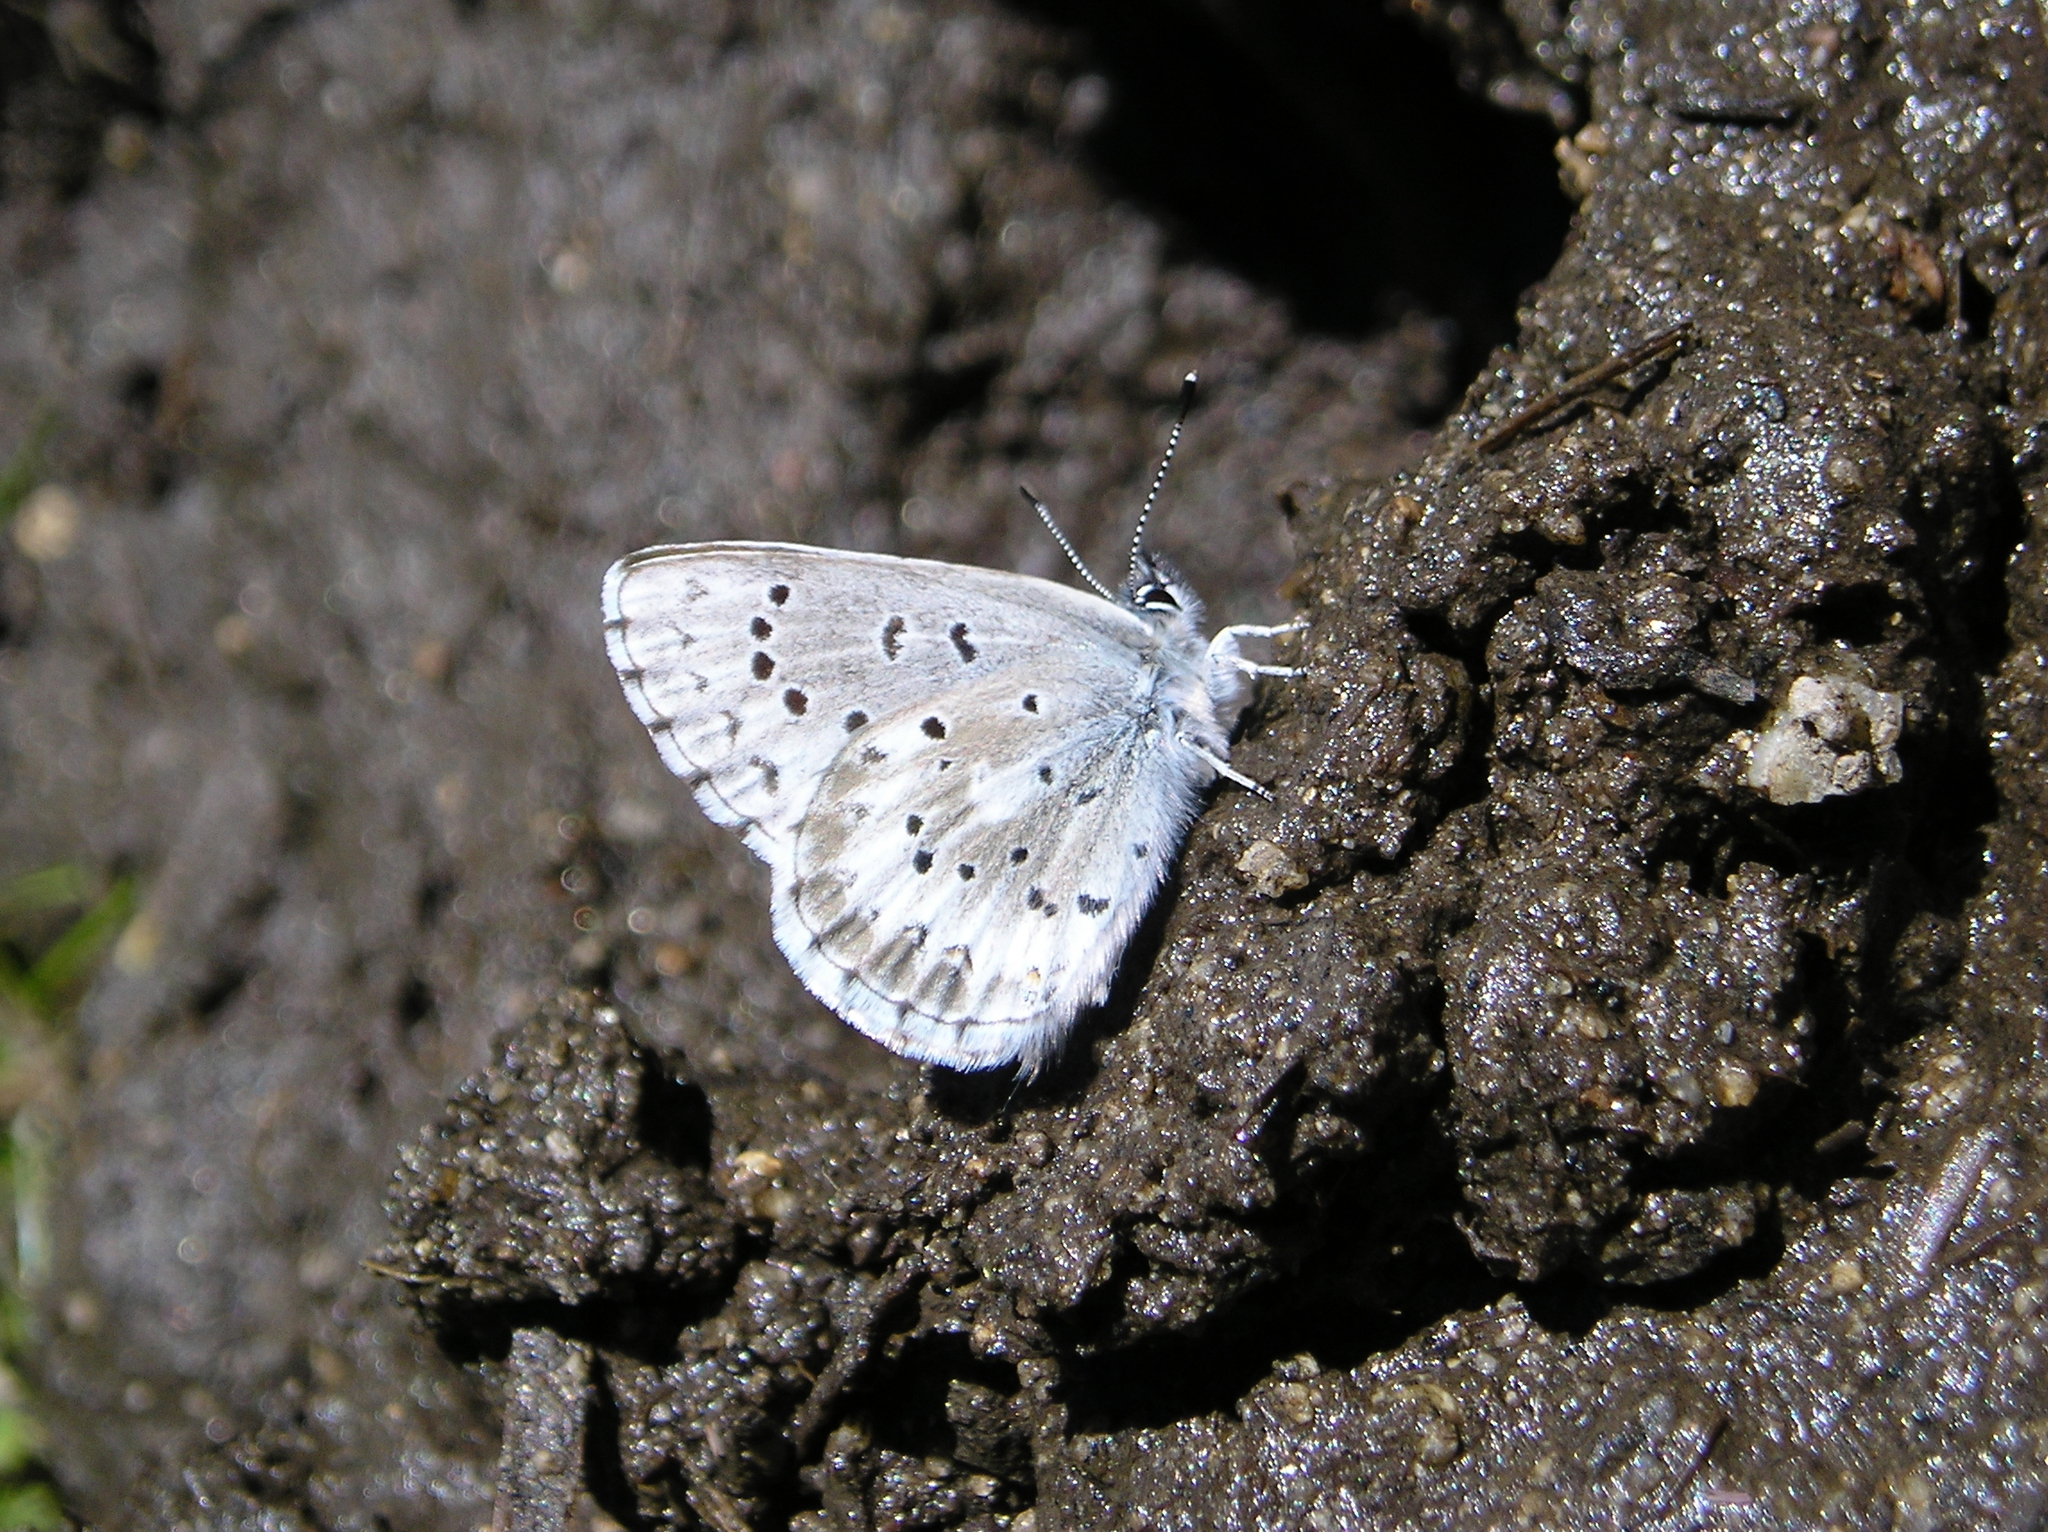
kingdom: Animalia
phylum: Arthropoda
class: Insecta
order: Lepidoptera
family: Lycaenidae
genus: Glaucopsyche
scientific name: Glaucopsyche piasus
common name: Arrowhead blue
